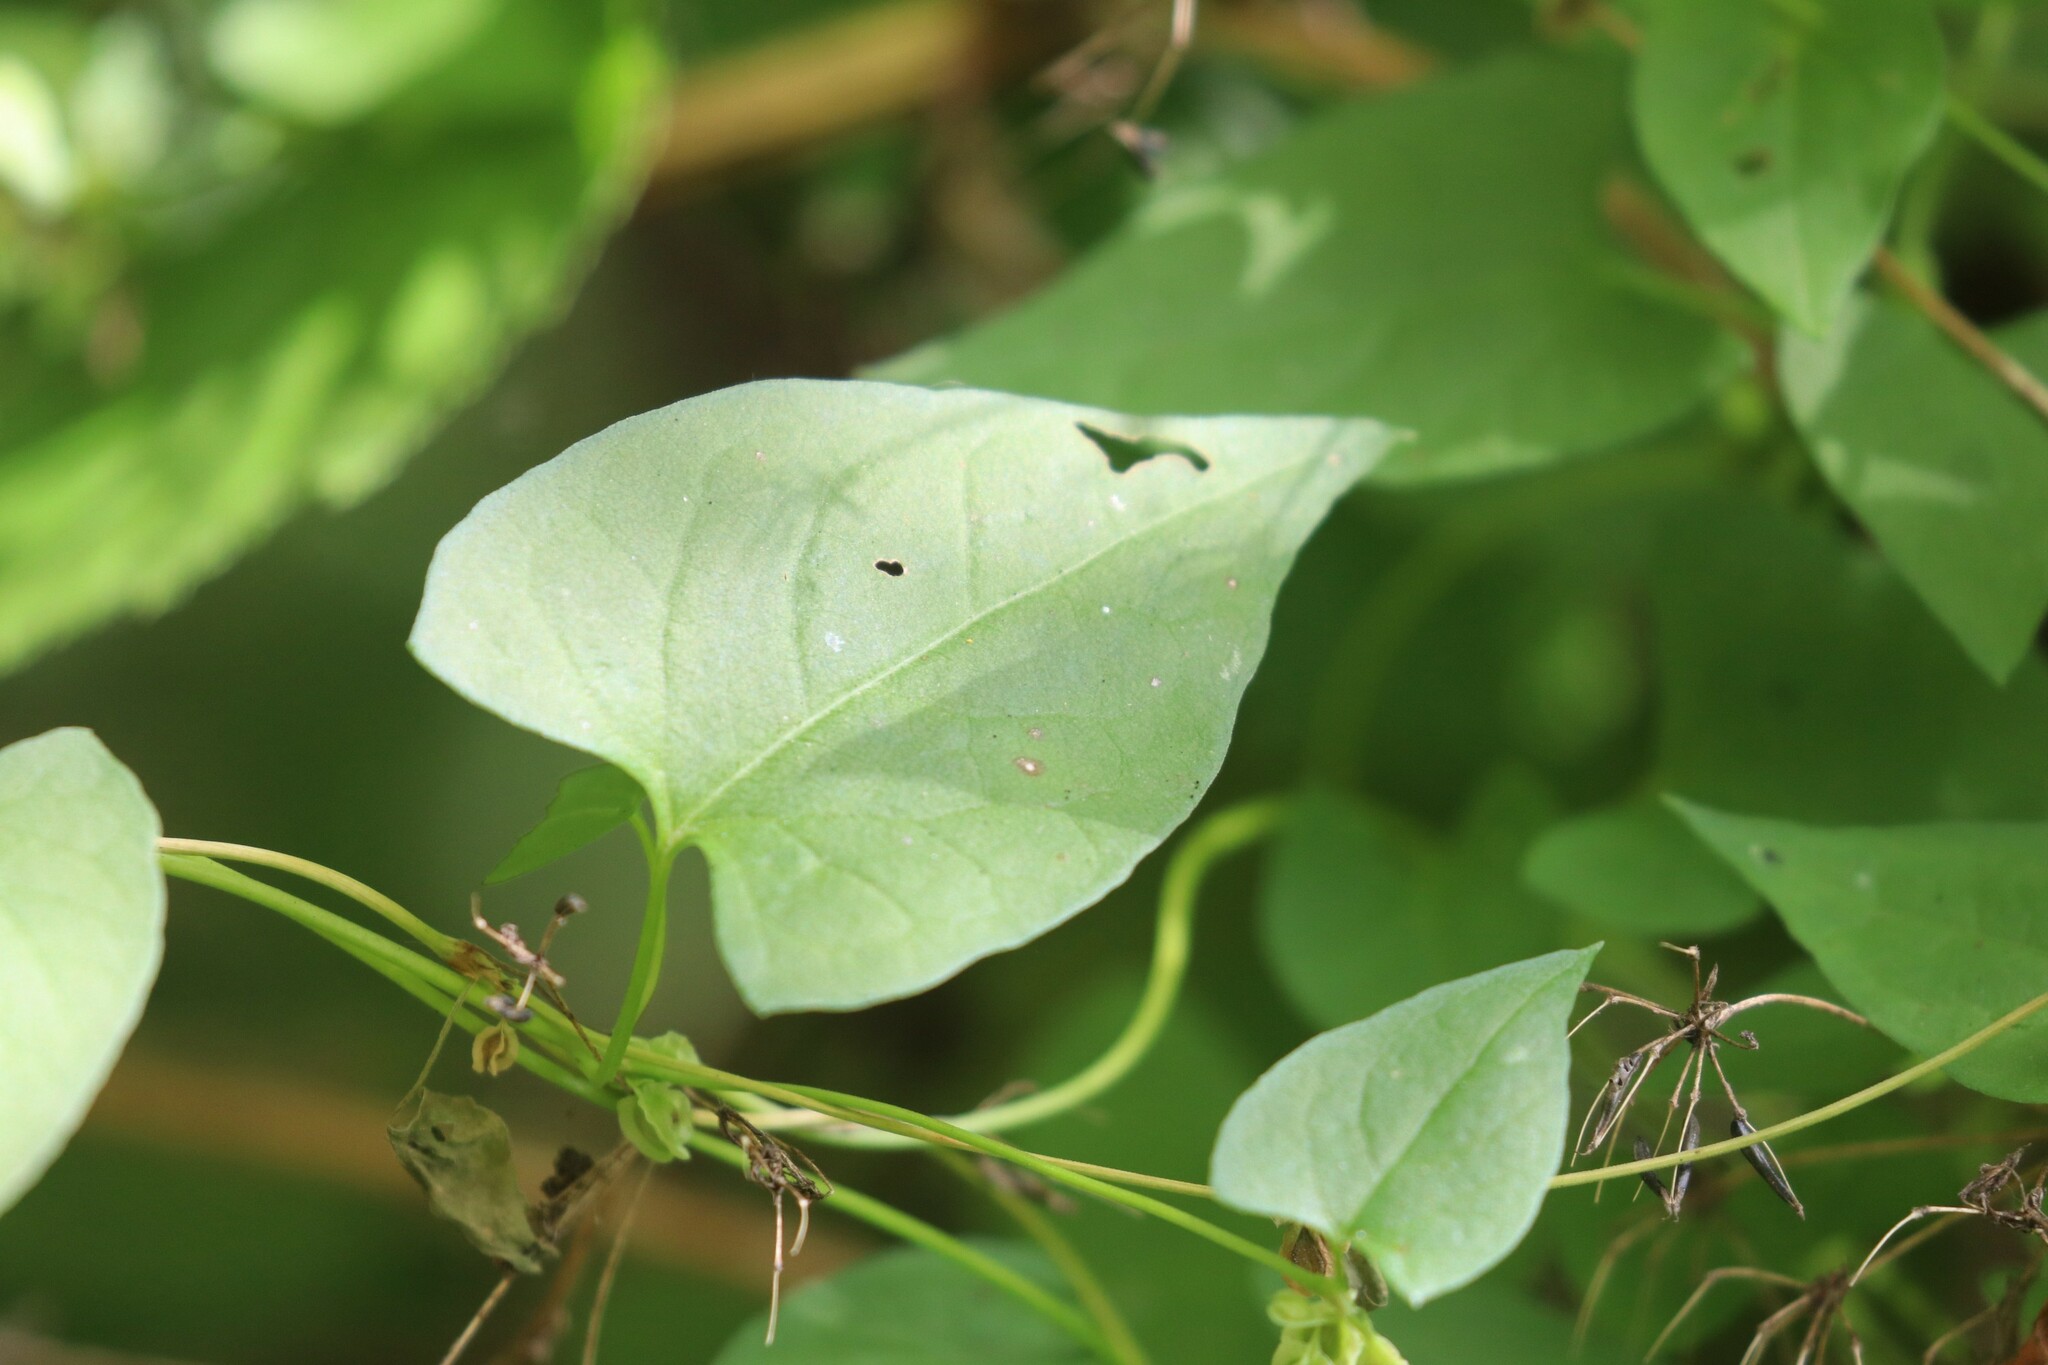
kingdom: Plantae
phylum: Tracheophyta
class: Magnoliopsida
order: Caryophyllales
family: Polygonaceae
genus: Fallopia
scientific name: Fallopia dumetorum
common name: Copse-bindweed
